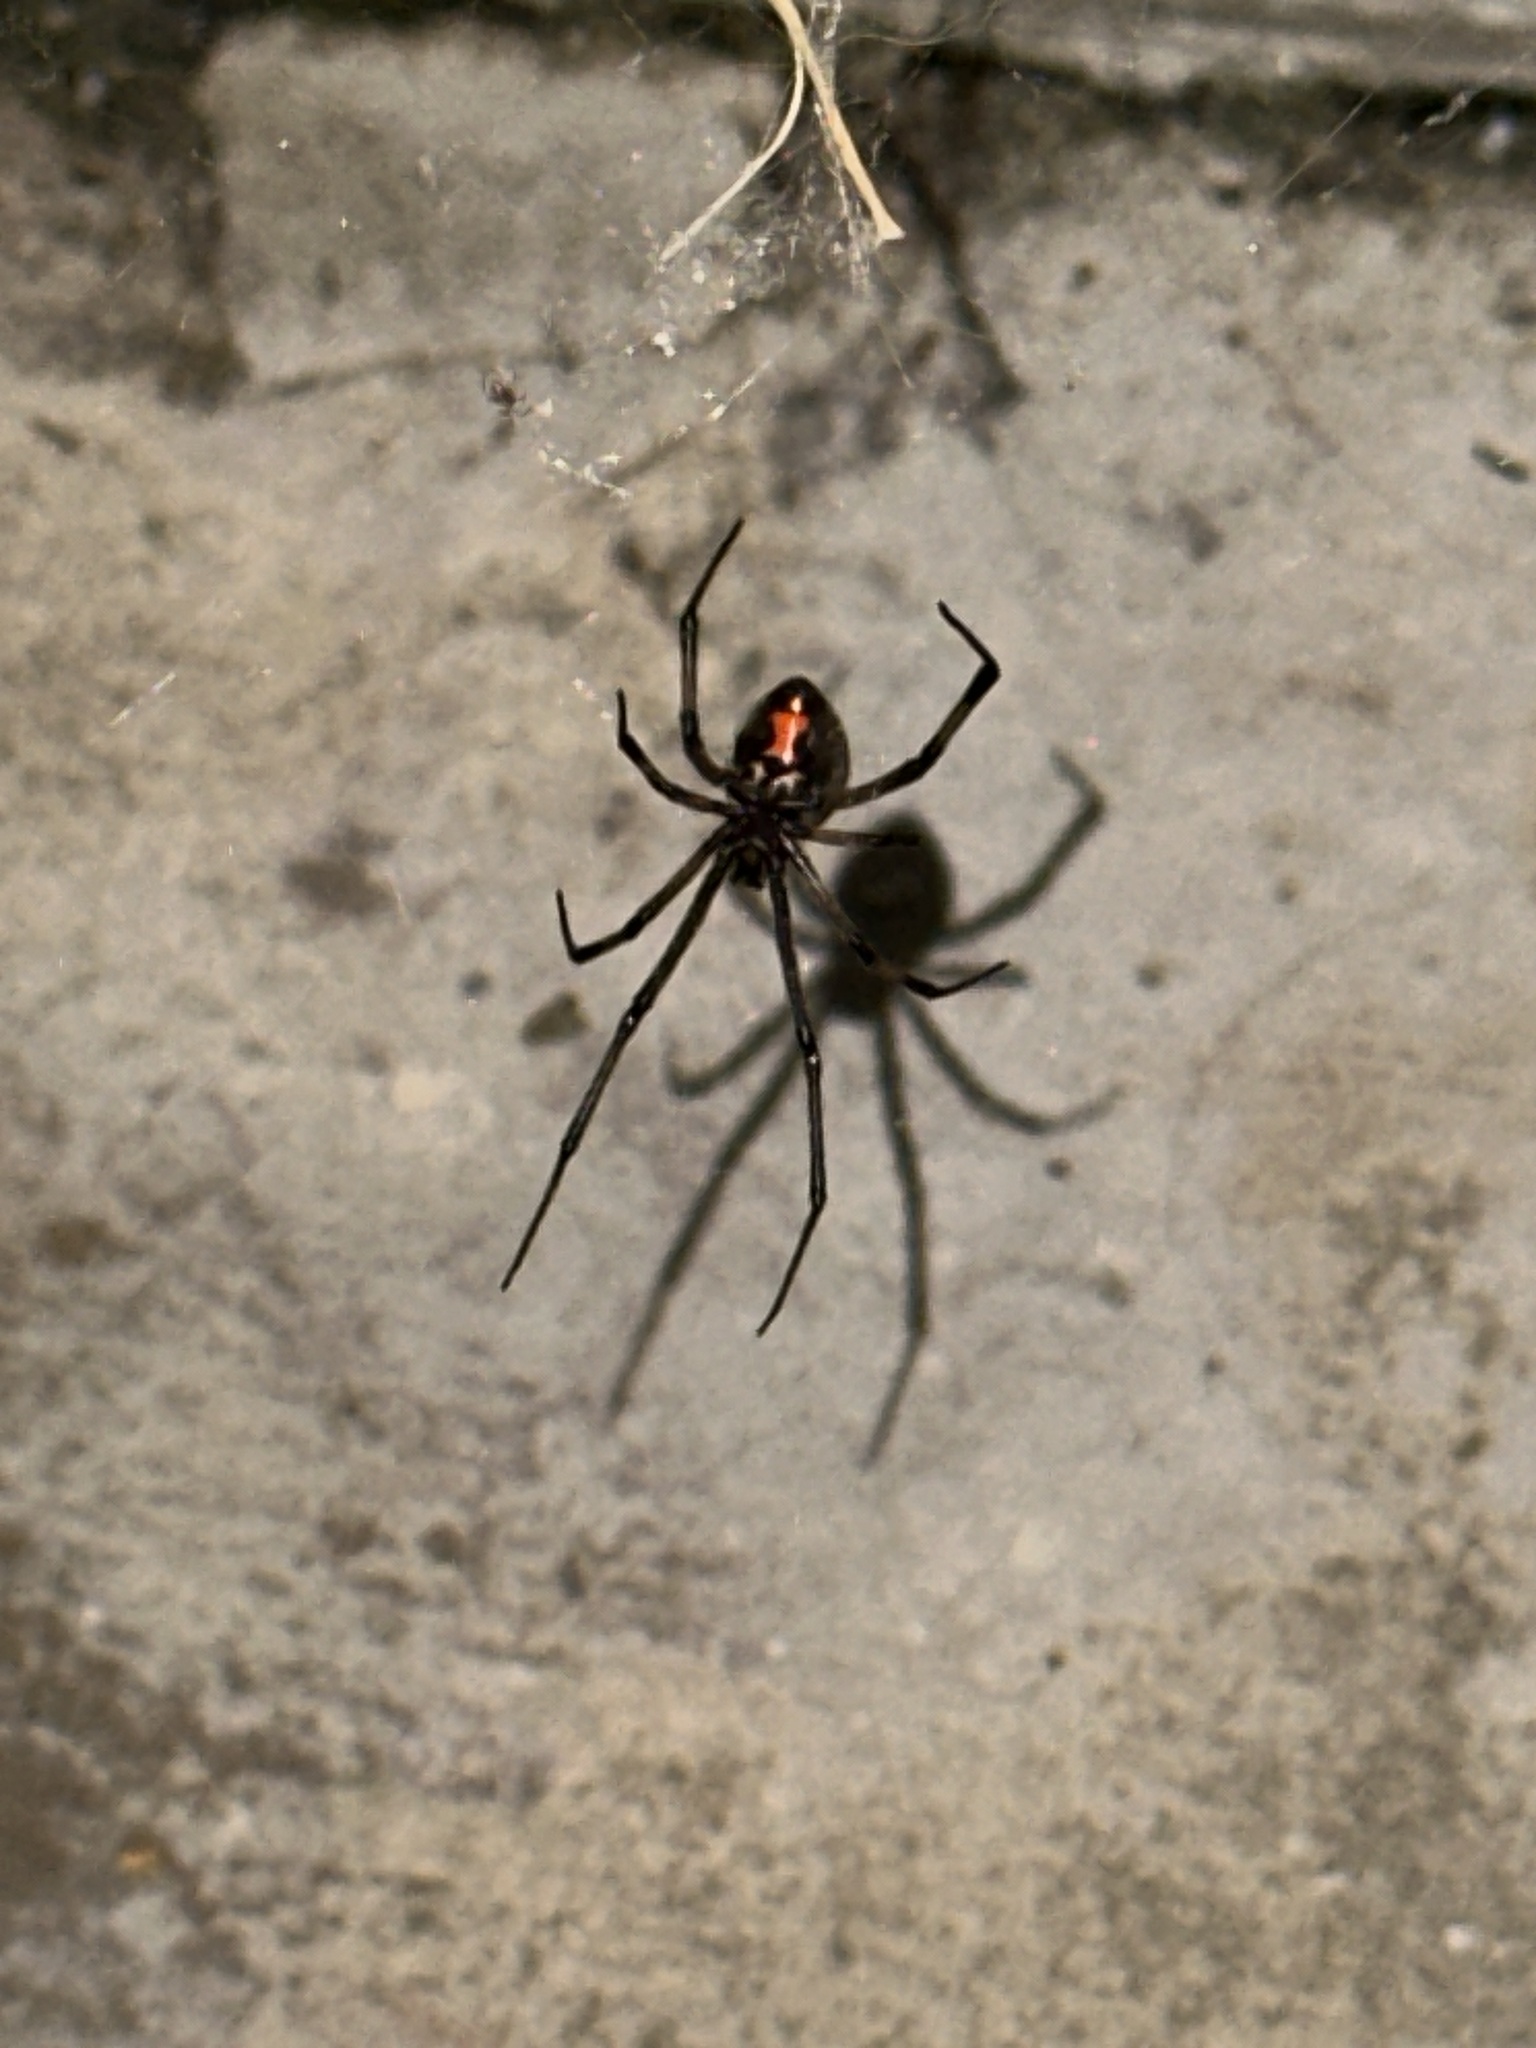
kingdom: Animalia
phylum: Arthropoda
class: Arachnida
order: Araneae
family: Theridiidae
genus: Latrodectus
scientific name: Latrodectus hesperus
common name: Western black widow
